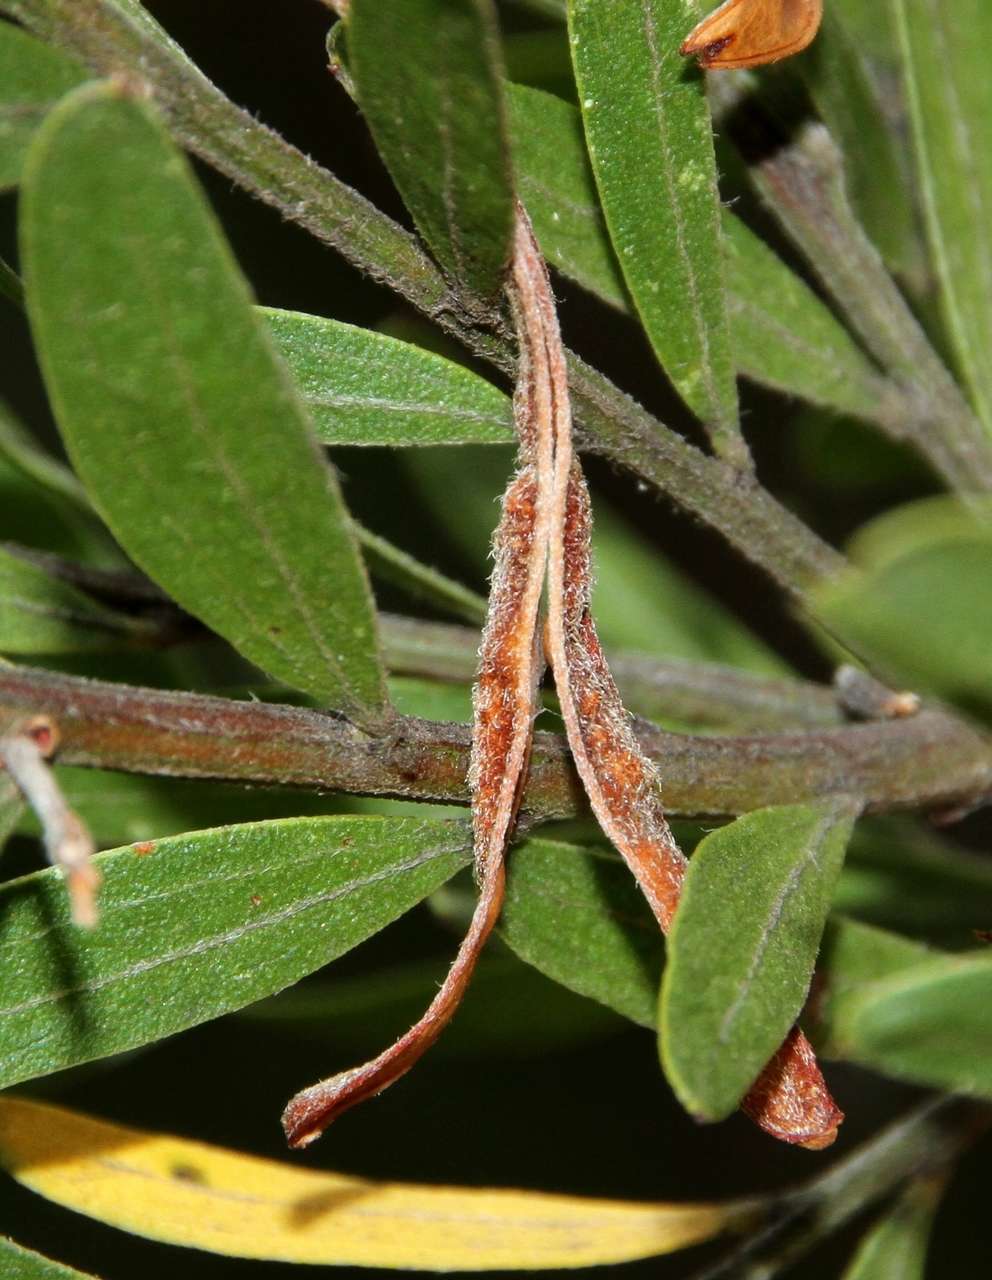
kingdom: Plantae
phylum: Tracheophyta
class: Magnoliopsida
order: Fabales
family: Fabaceae
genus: Acacia
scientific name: Acacia rostriformis
